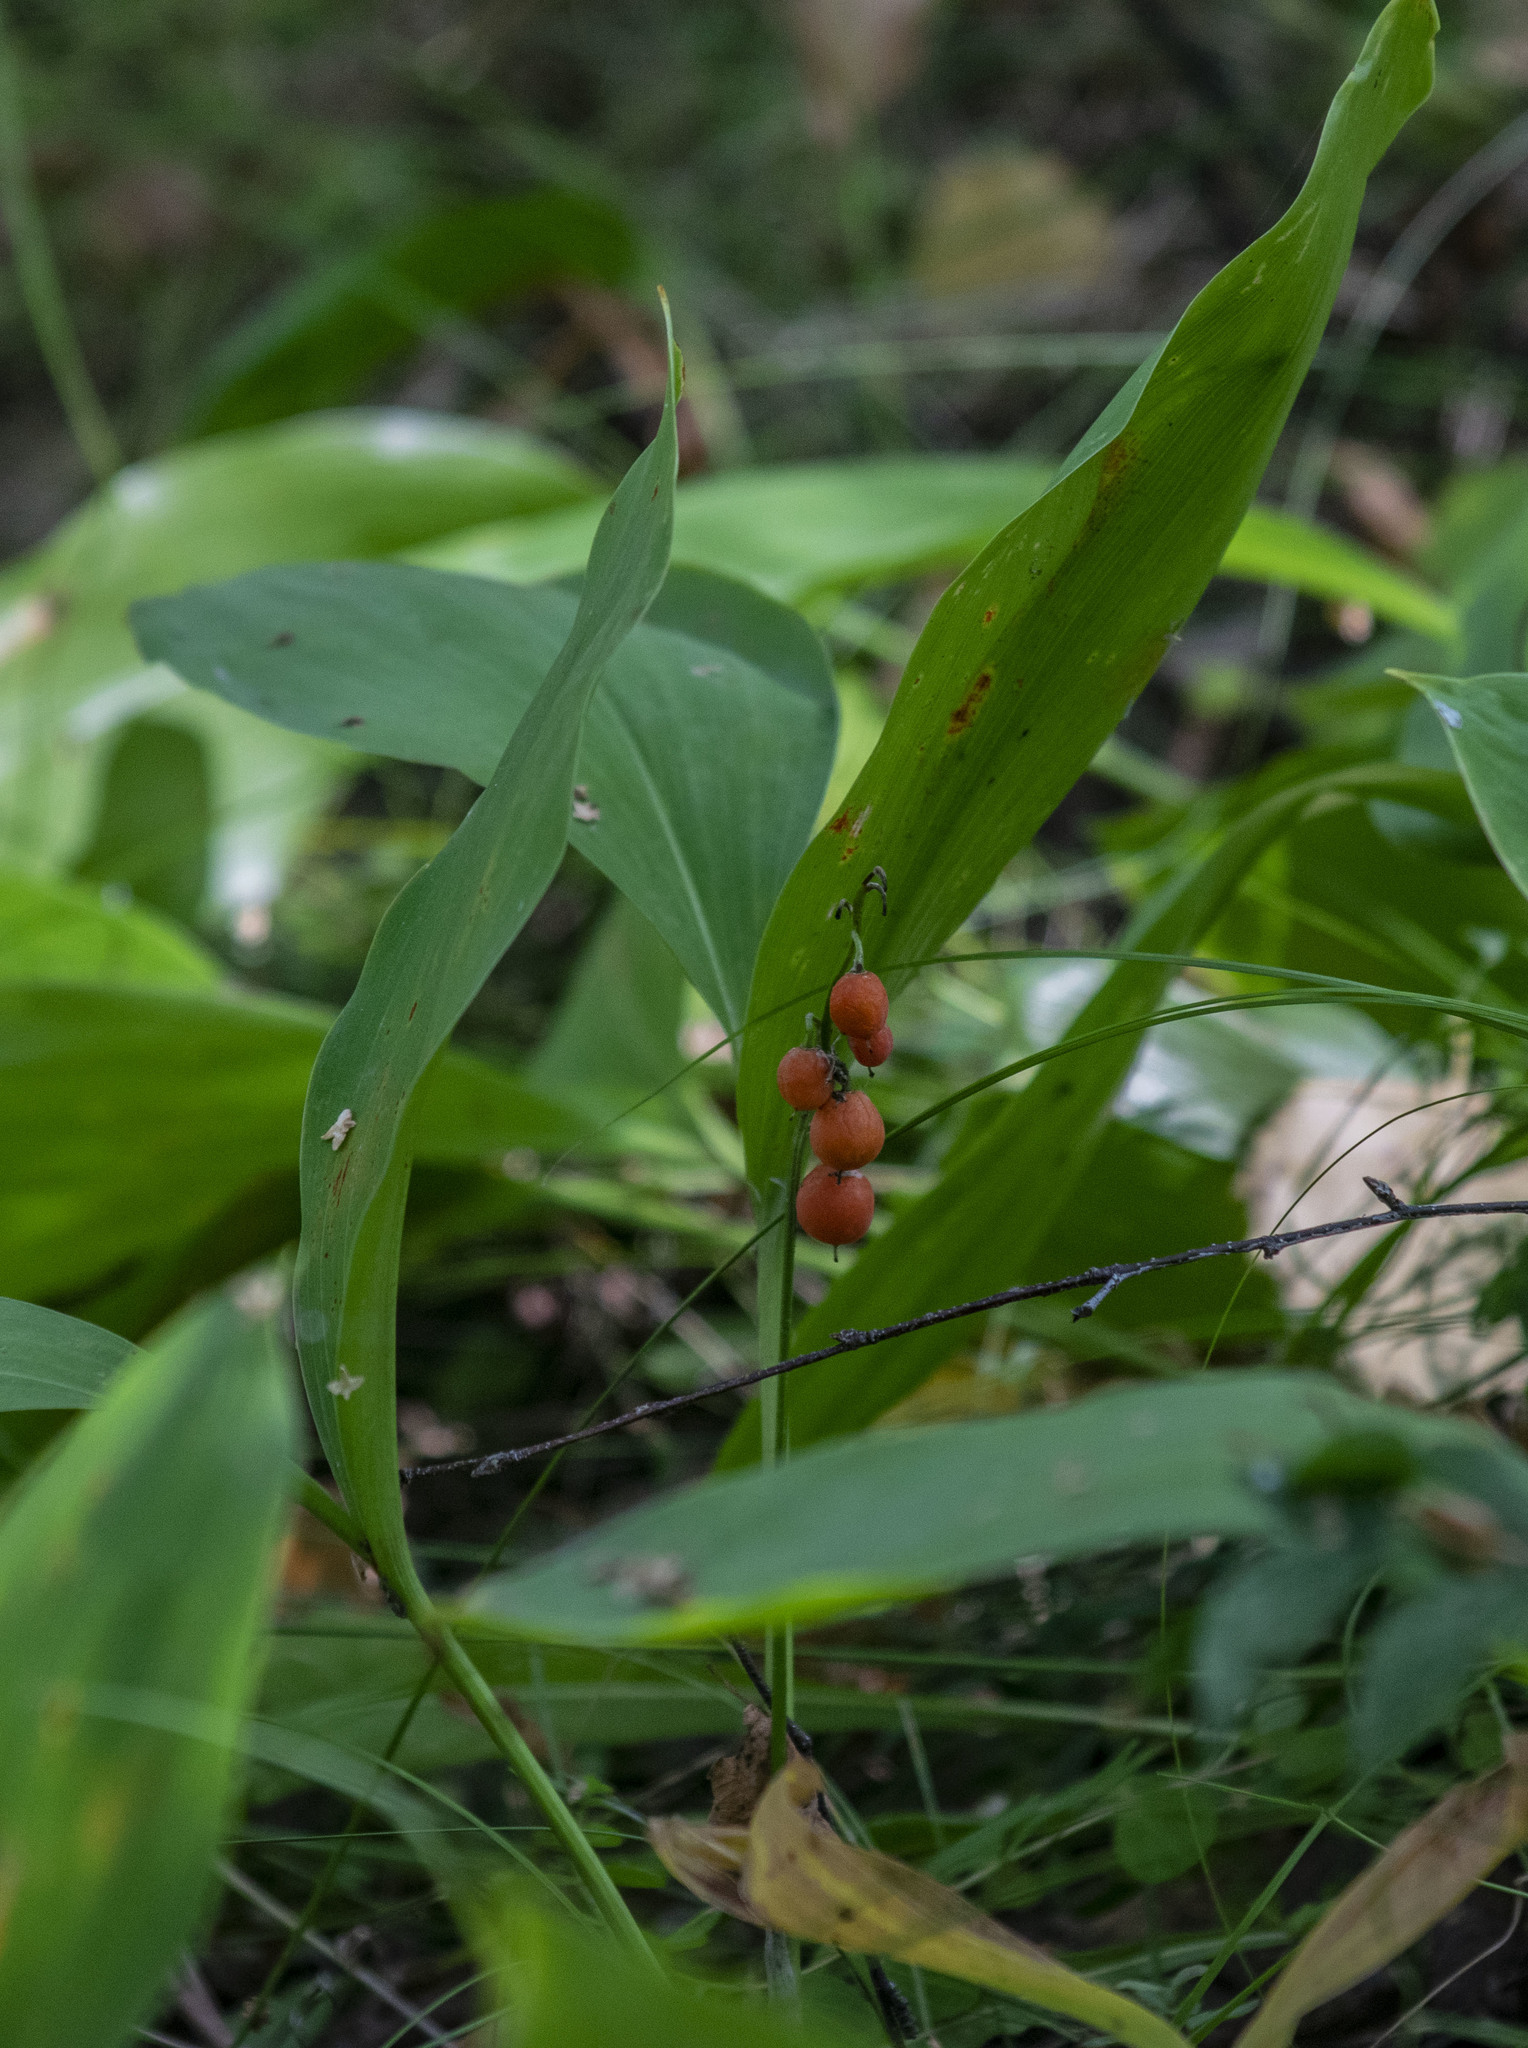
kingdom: Plantae
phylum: Tracheophyta
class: Liliopsida
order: Asparagales
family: Asparagaceae
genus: Convallaria
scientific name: Convallaria majalis
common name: Lily-of-the-valley
